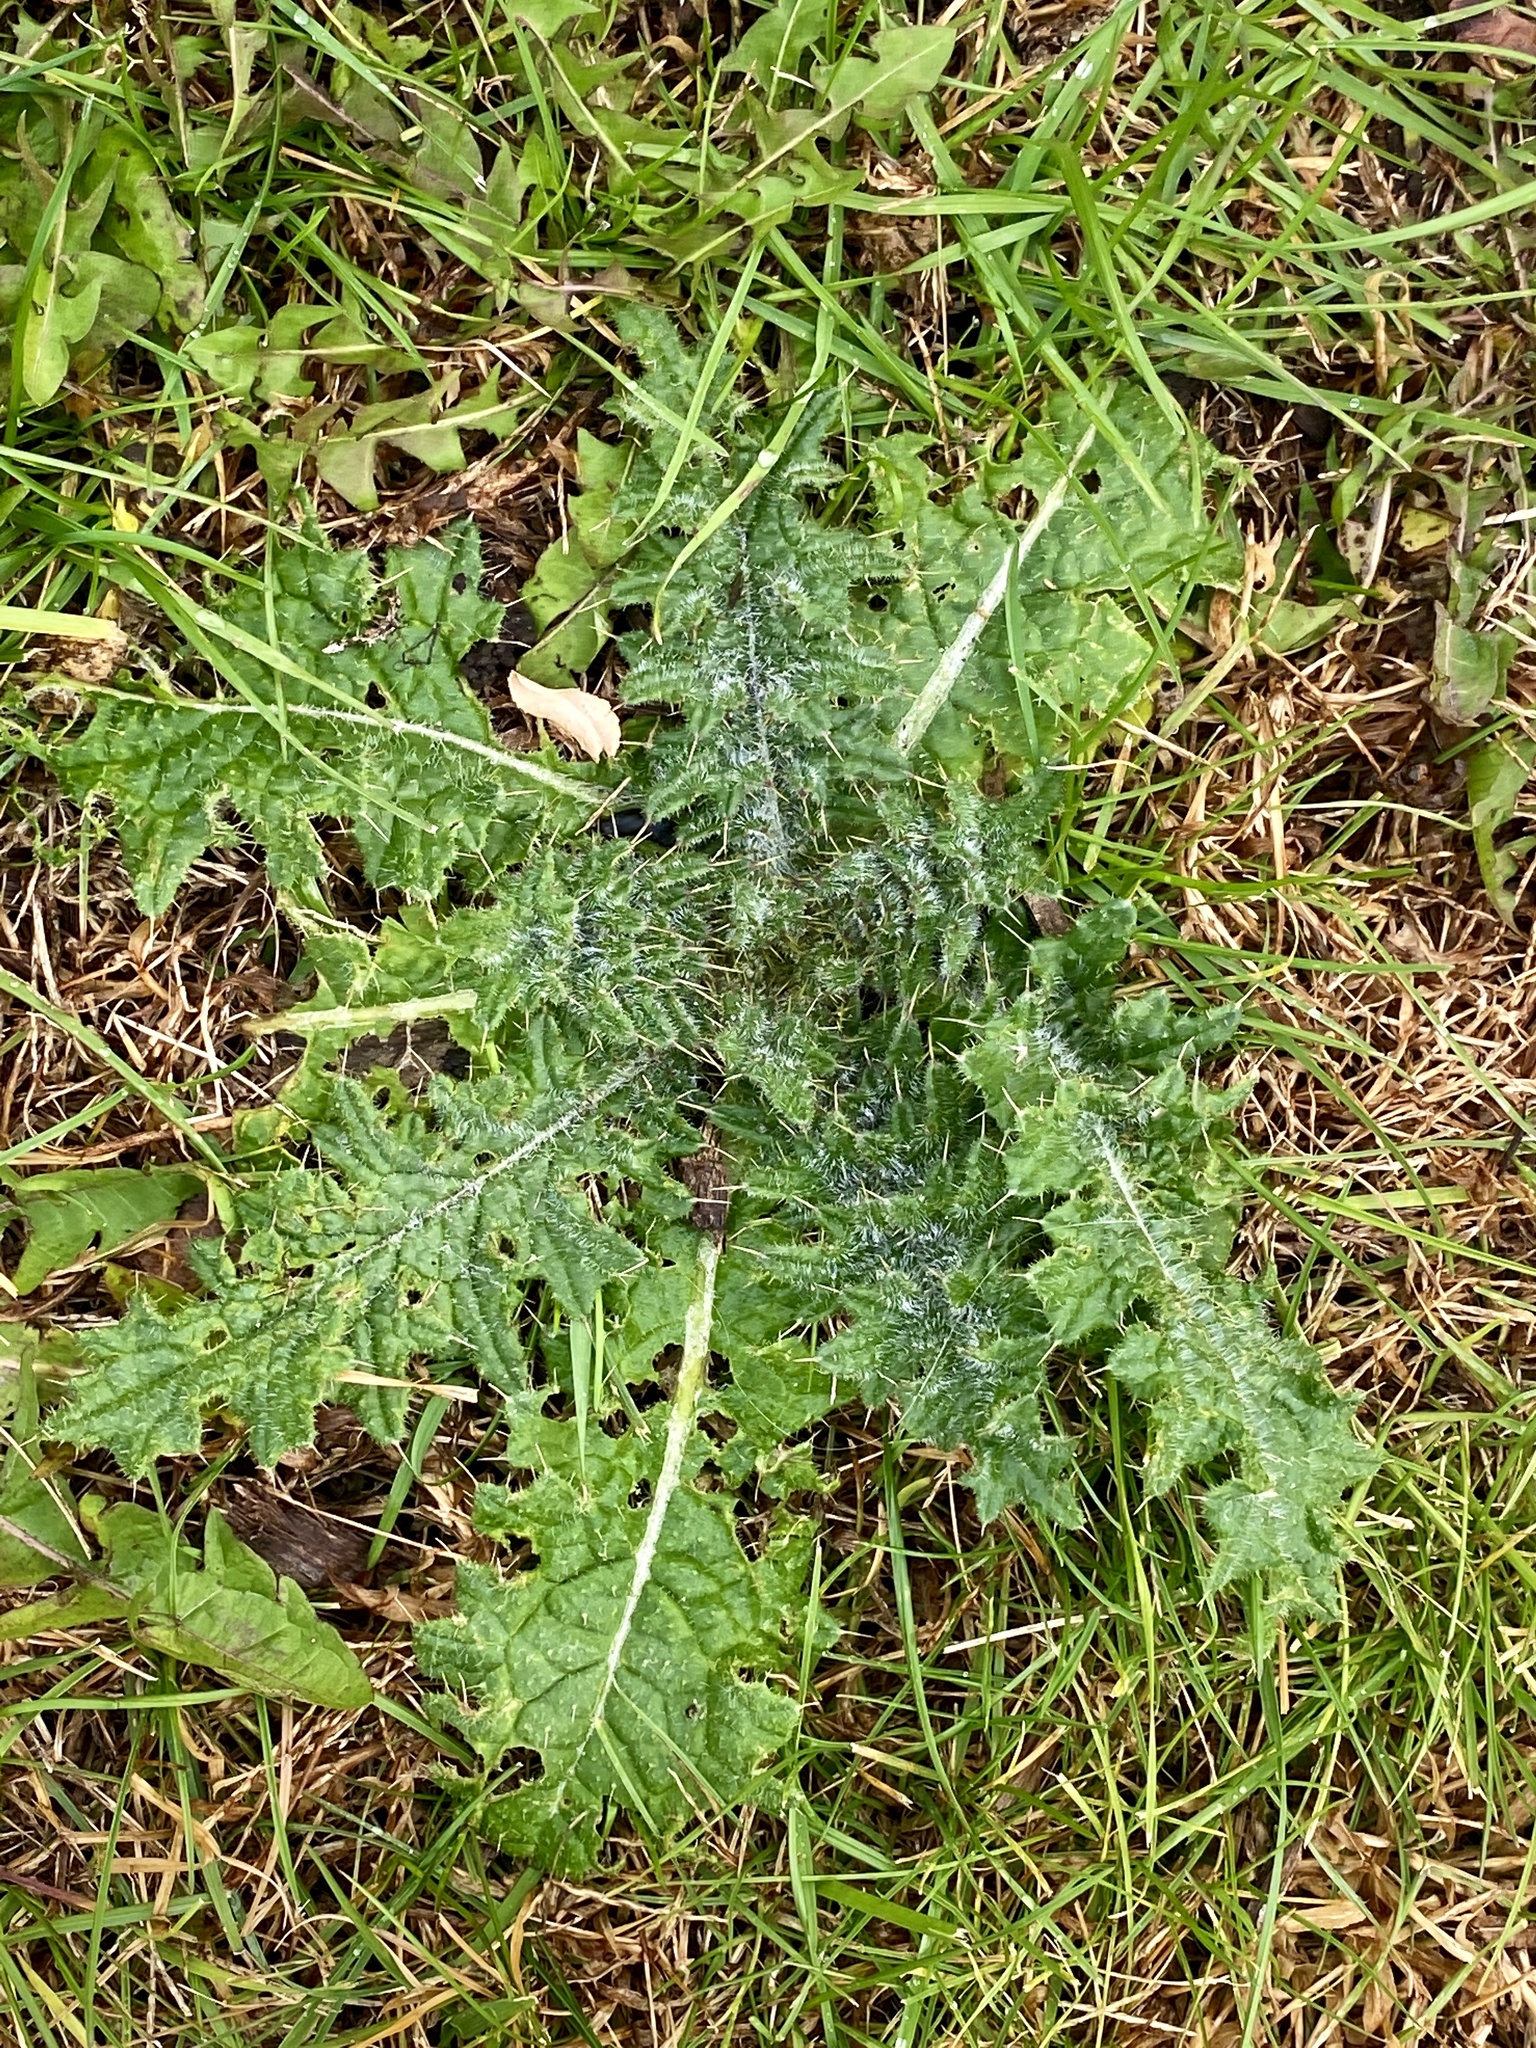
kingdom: Plantae
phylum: Tracheophyta
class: Magnoliopsida
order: Asterales
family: Asteraceae
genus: Cirsium
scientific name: Cirsium vulgare
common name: Bull thistle
